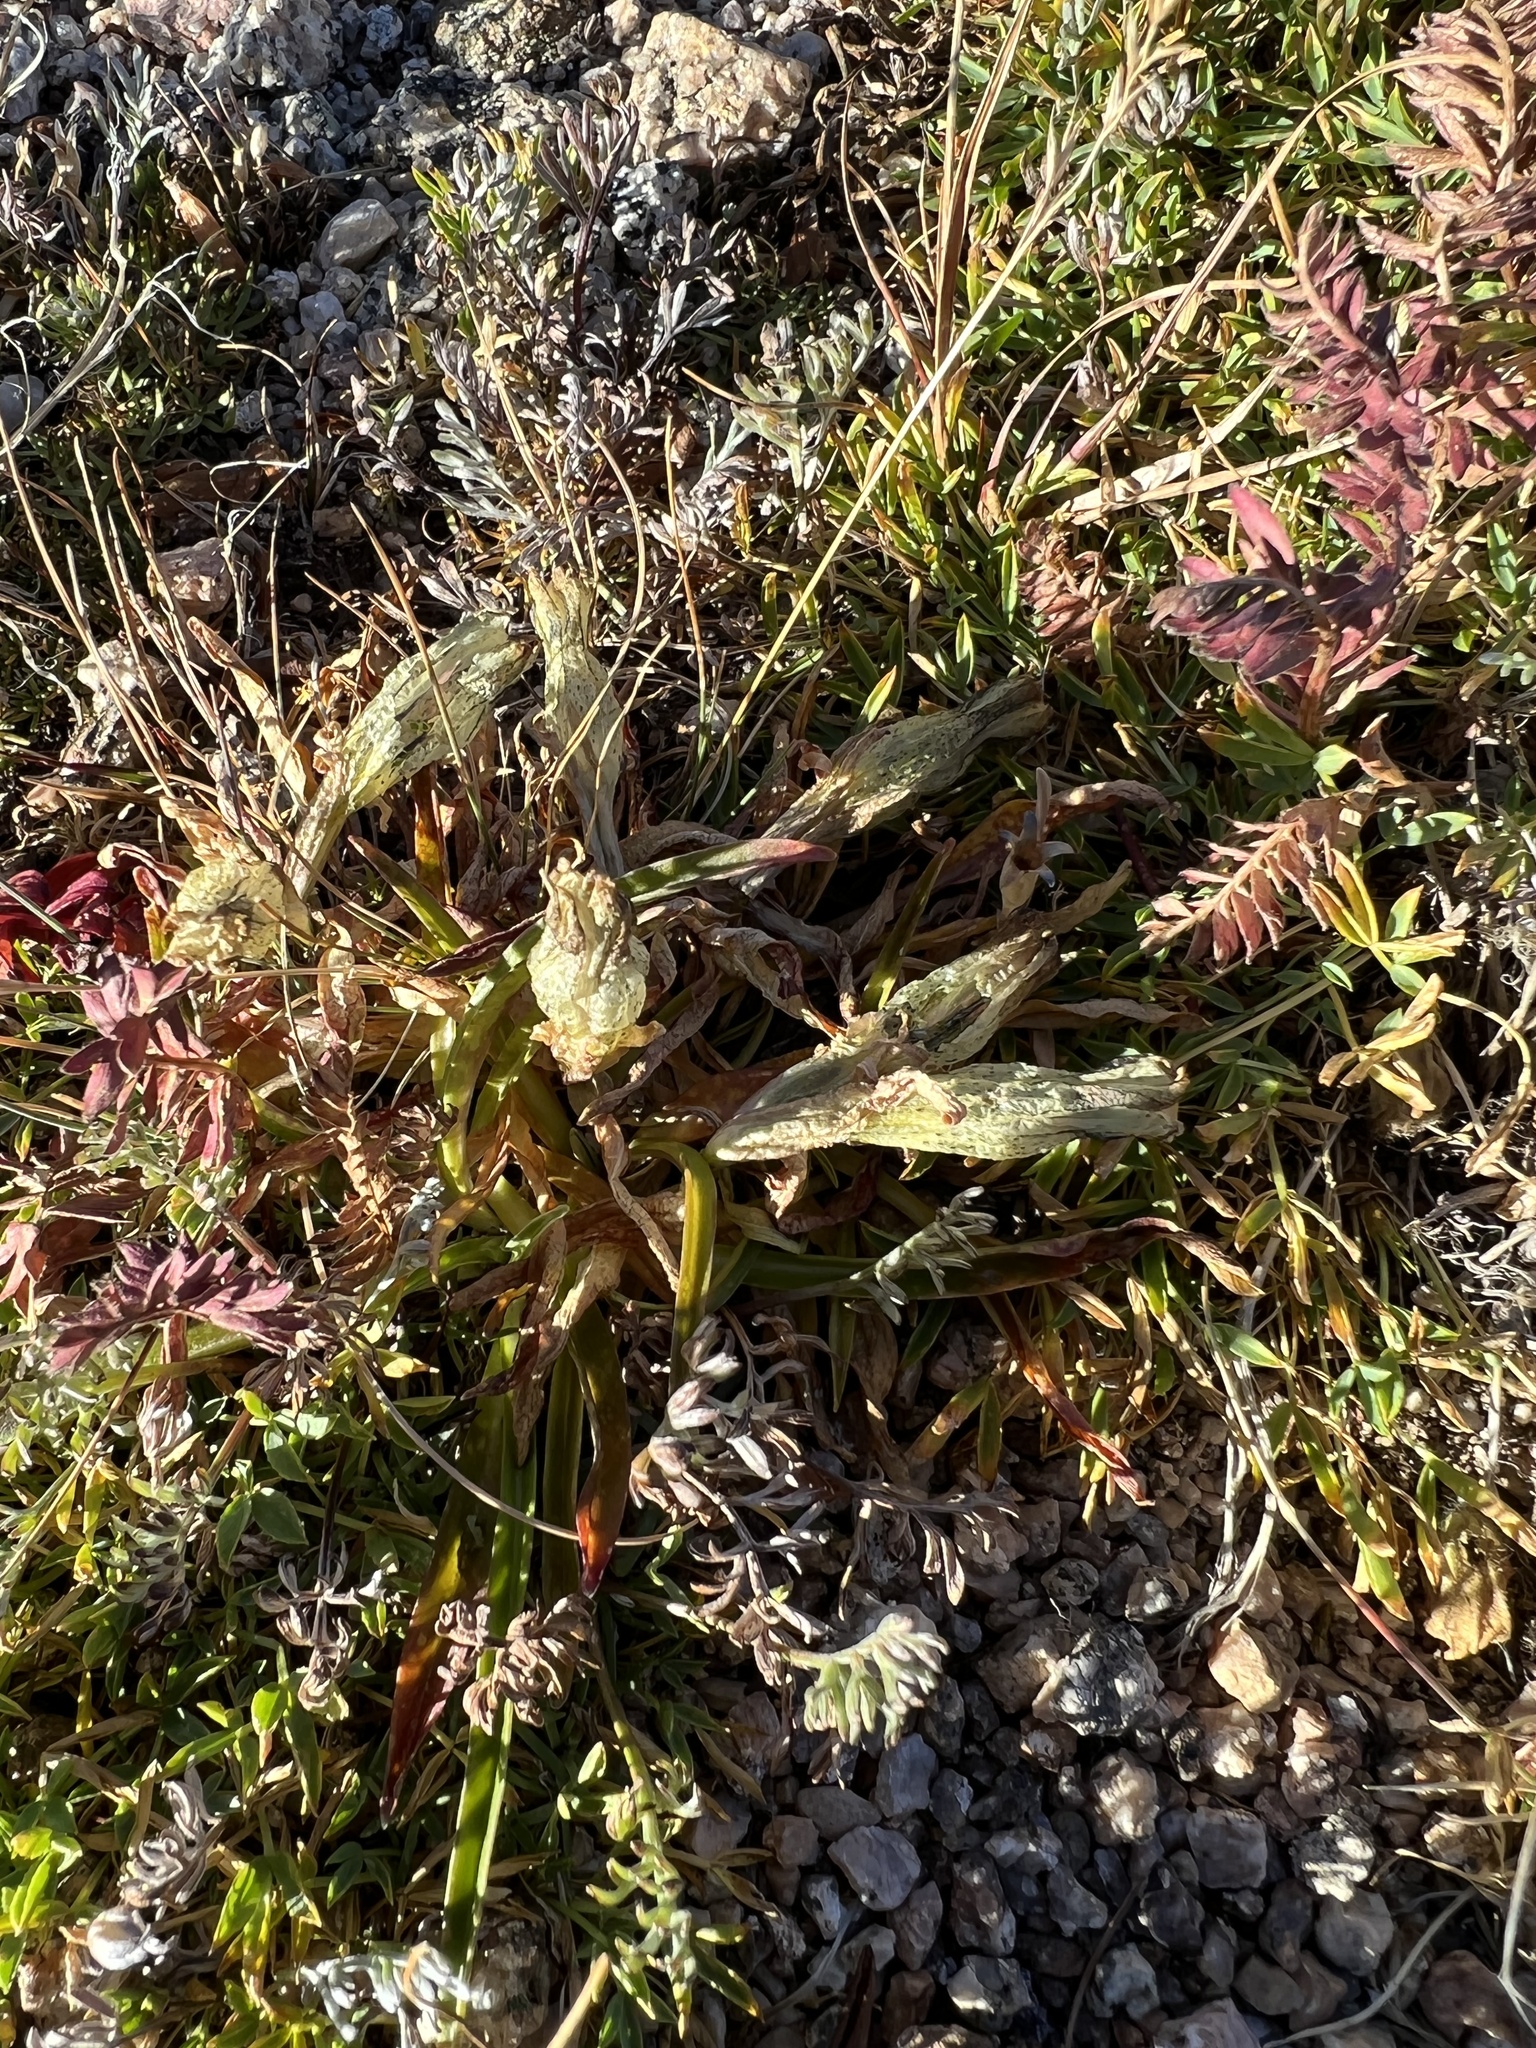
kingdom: Plantae
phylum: Tracheophyta
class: Magnoliopsida
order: Gentianales
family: Gentianaceae
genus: Gentiana
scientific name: Gentiana algida
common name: Arctic gentian
